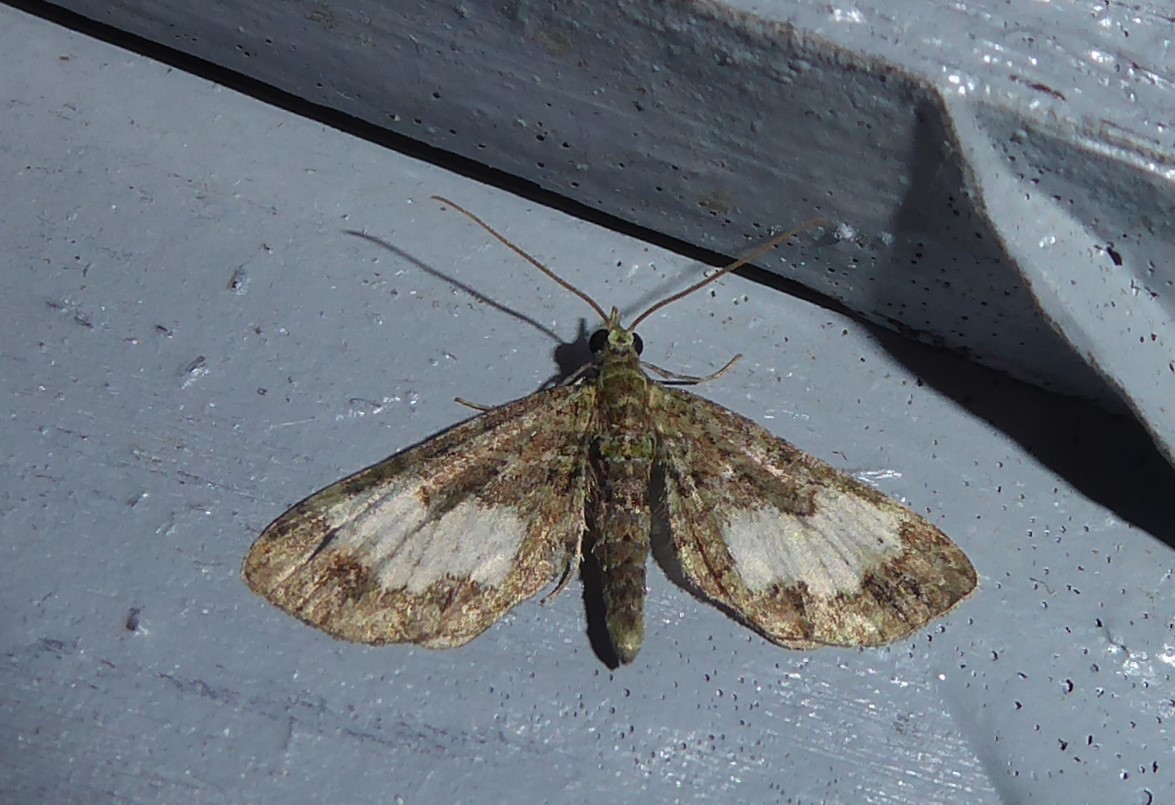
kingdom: Animalia
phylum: Arthropoda
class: Insecta
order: Lepidoptera
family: Geometridae
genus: Idaea
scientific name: Idaea mutanda
